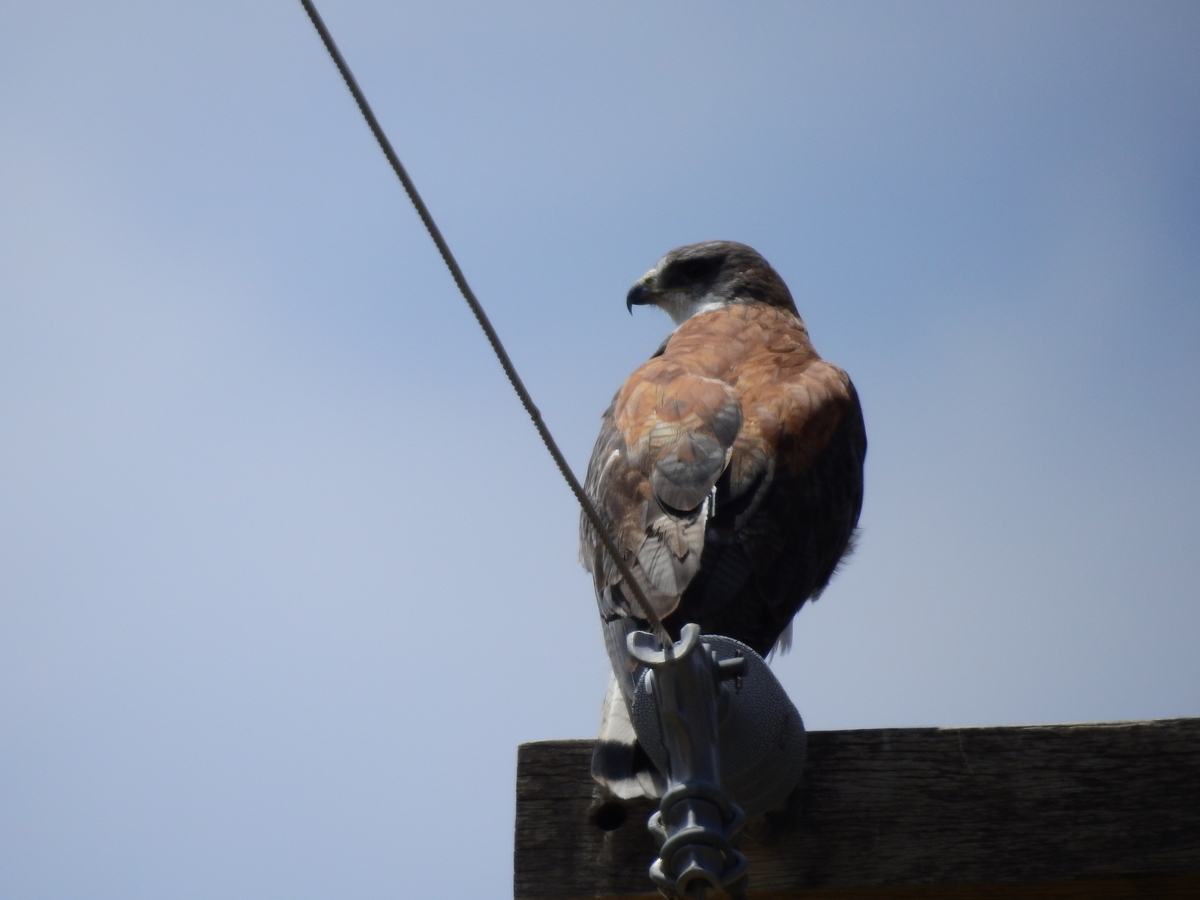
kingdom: Animalia
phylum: Chordata
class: Aves
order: Accipitriformes
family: Accipitridae
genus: Buteo
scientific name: Buteo polyosoma
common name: Variable hawk
